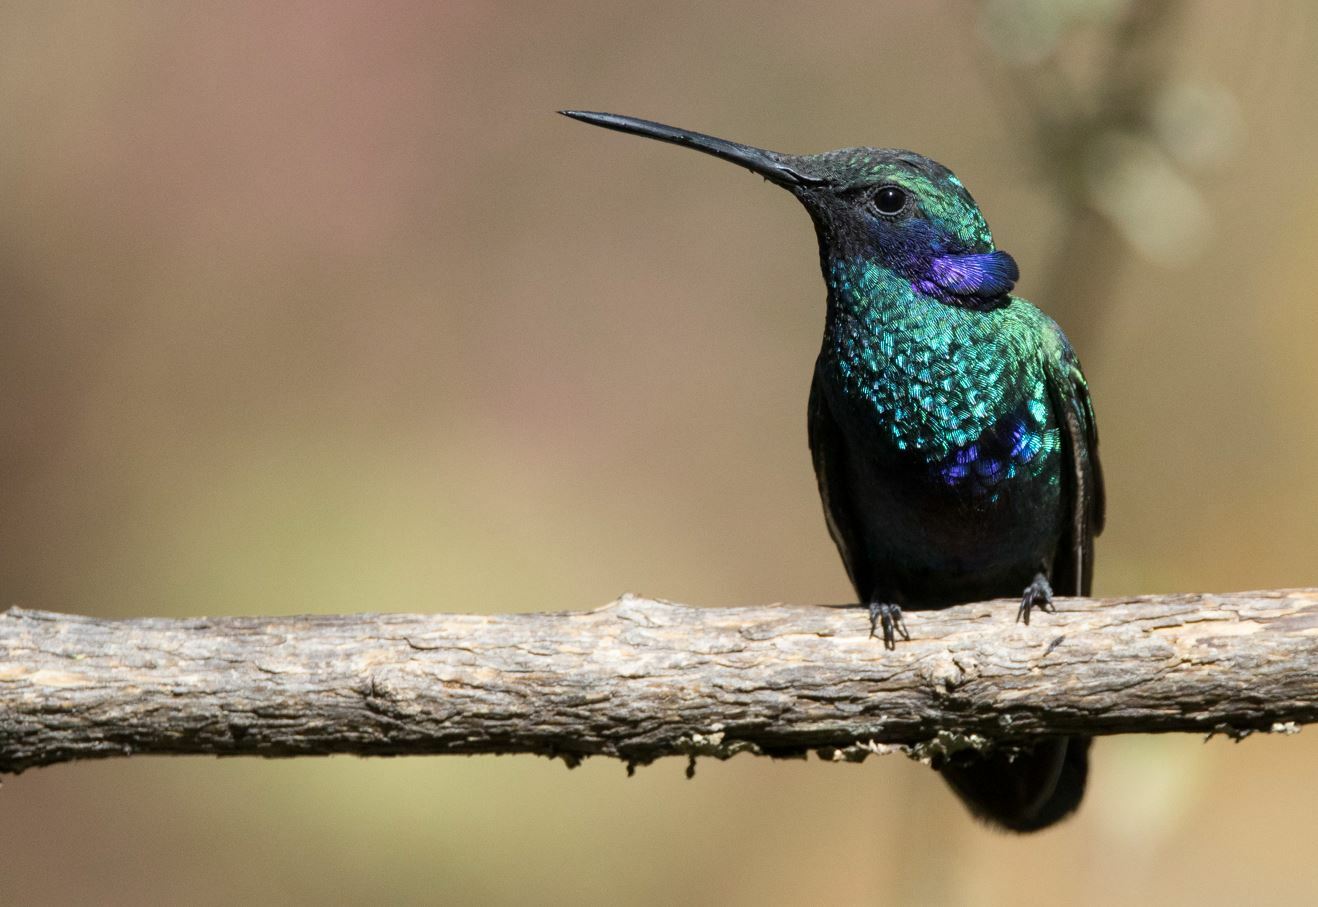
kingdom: Animalia
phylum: Chordata
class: Aves
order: Apodiformes
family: Trochilidae
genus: Colibri
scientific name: Colibri coruscans
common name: Sparkling violetear
